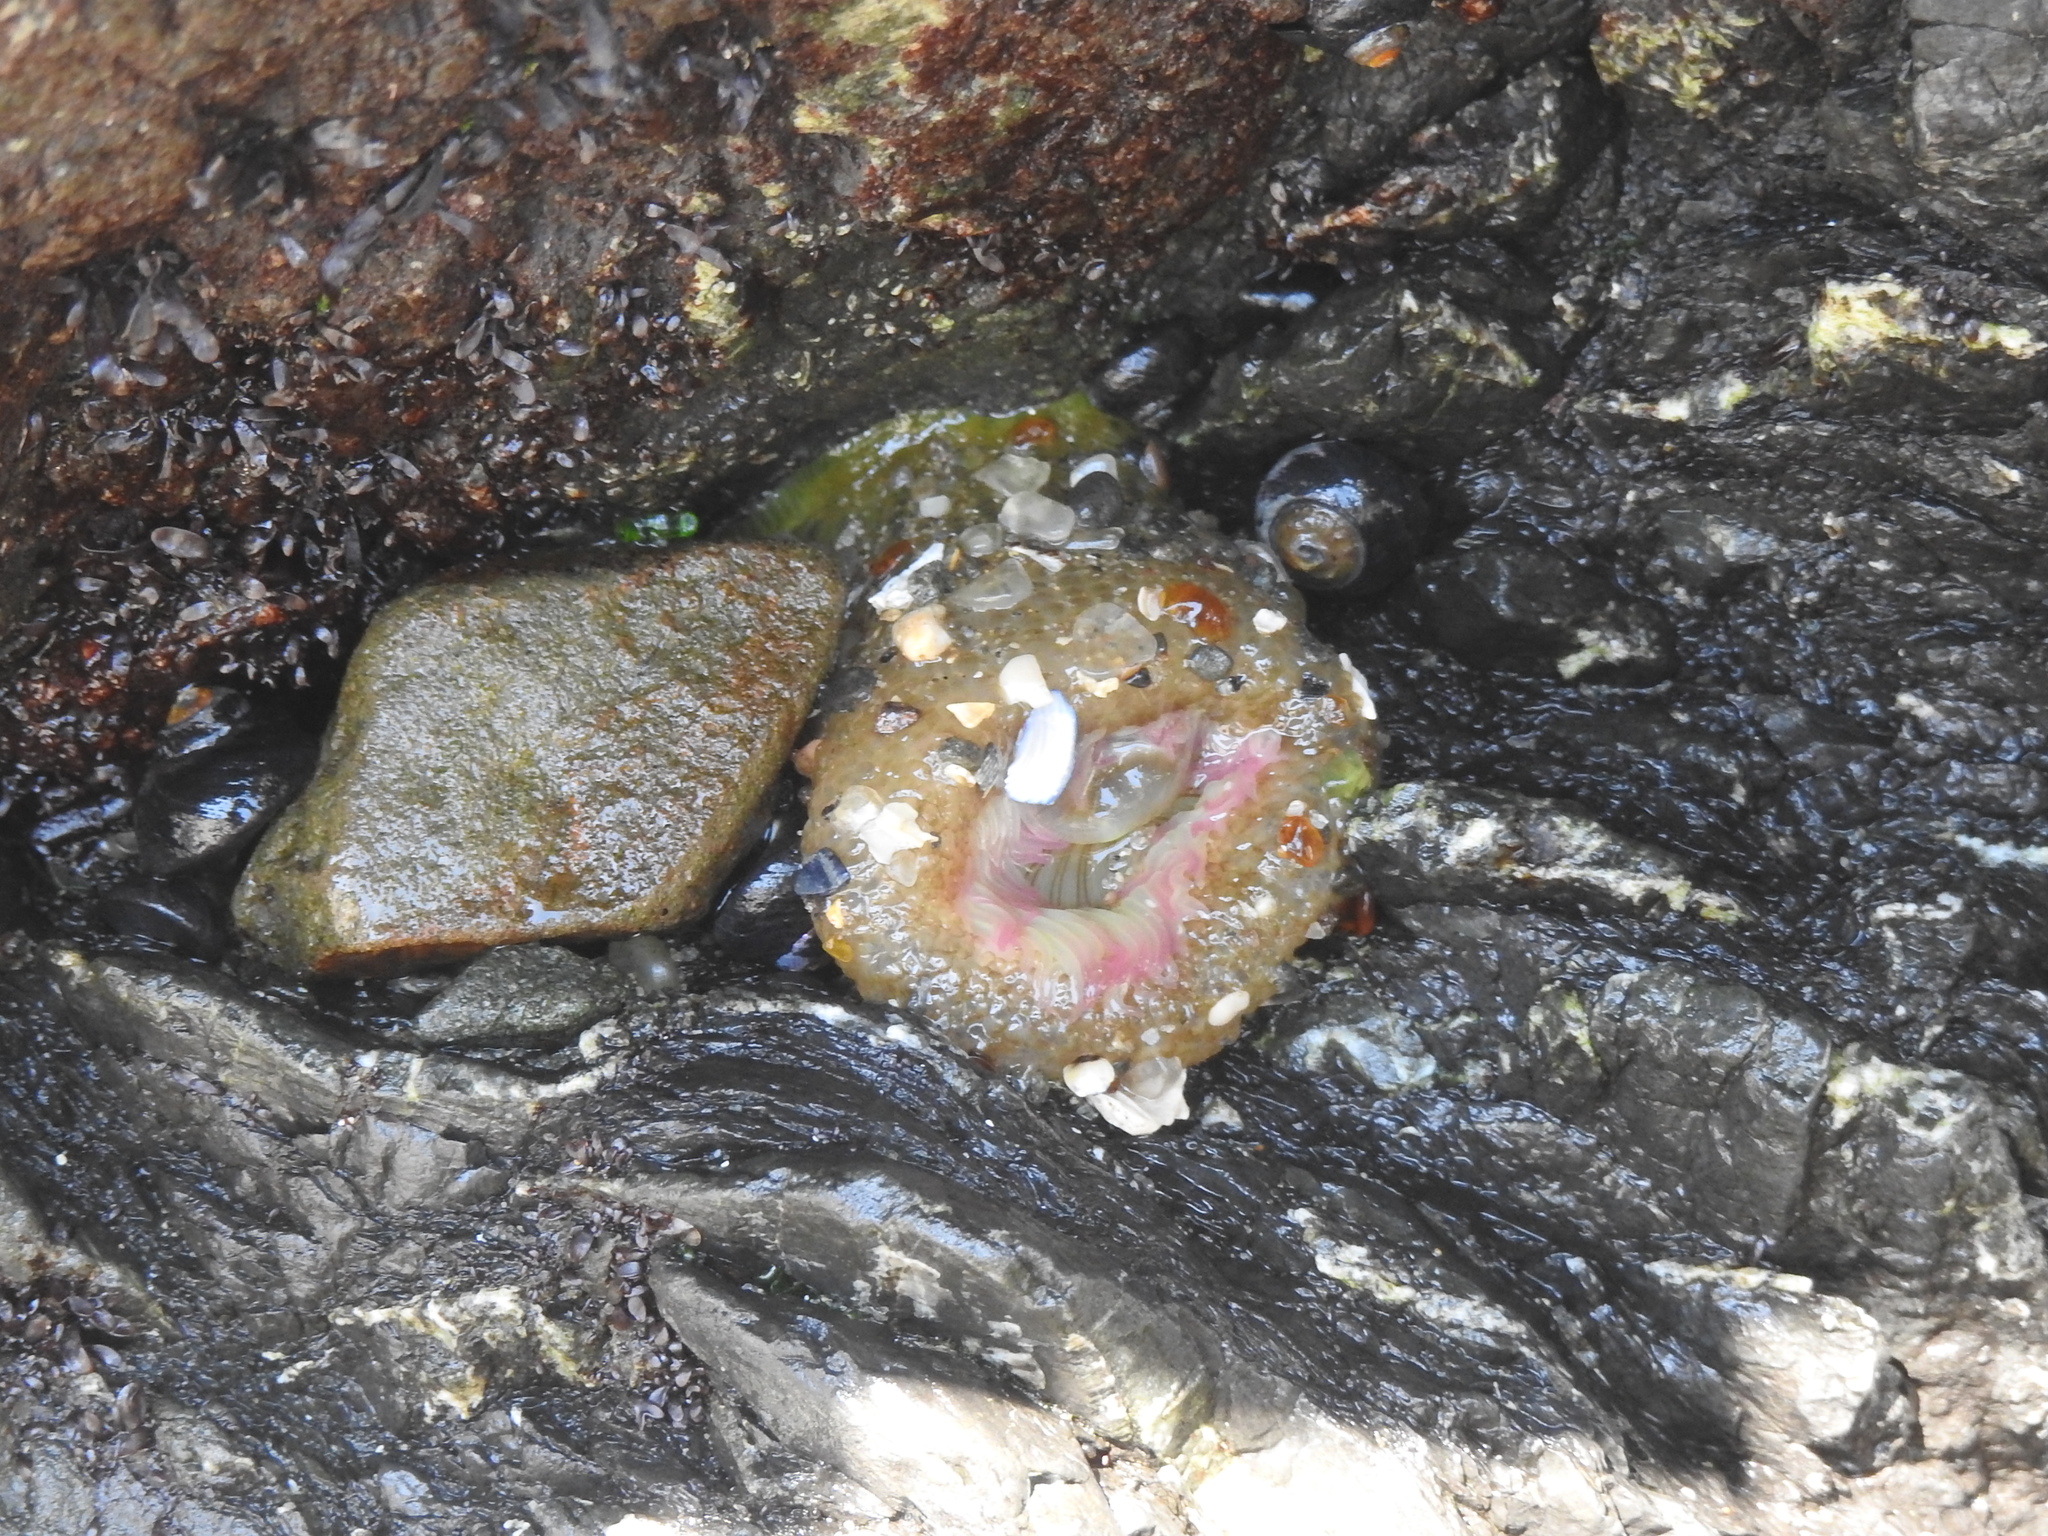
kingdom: Animalia
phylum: Cnidaria
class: Anthozoa
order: Actiniaria
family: Actiniidae
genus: Anthopleura
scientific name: Anthopleura elegantissima
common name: Clonal anemone
